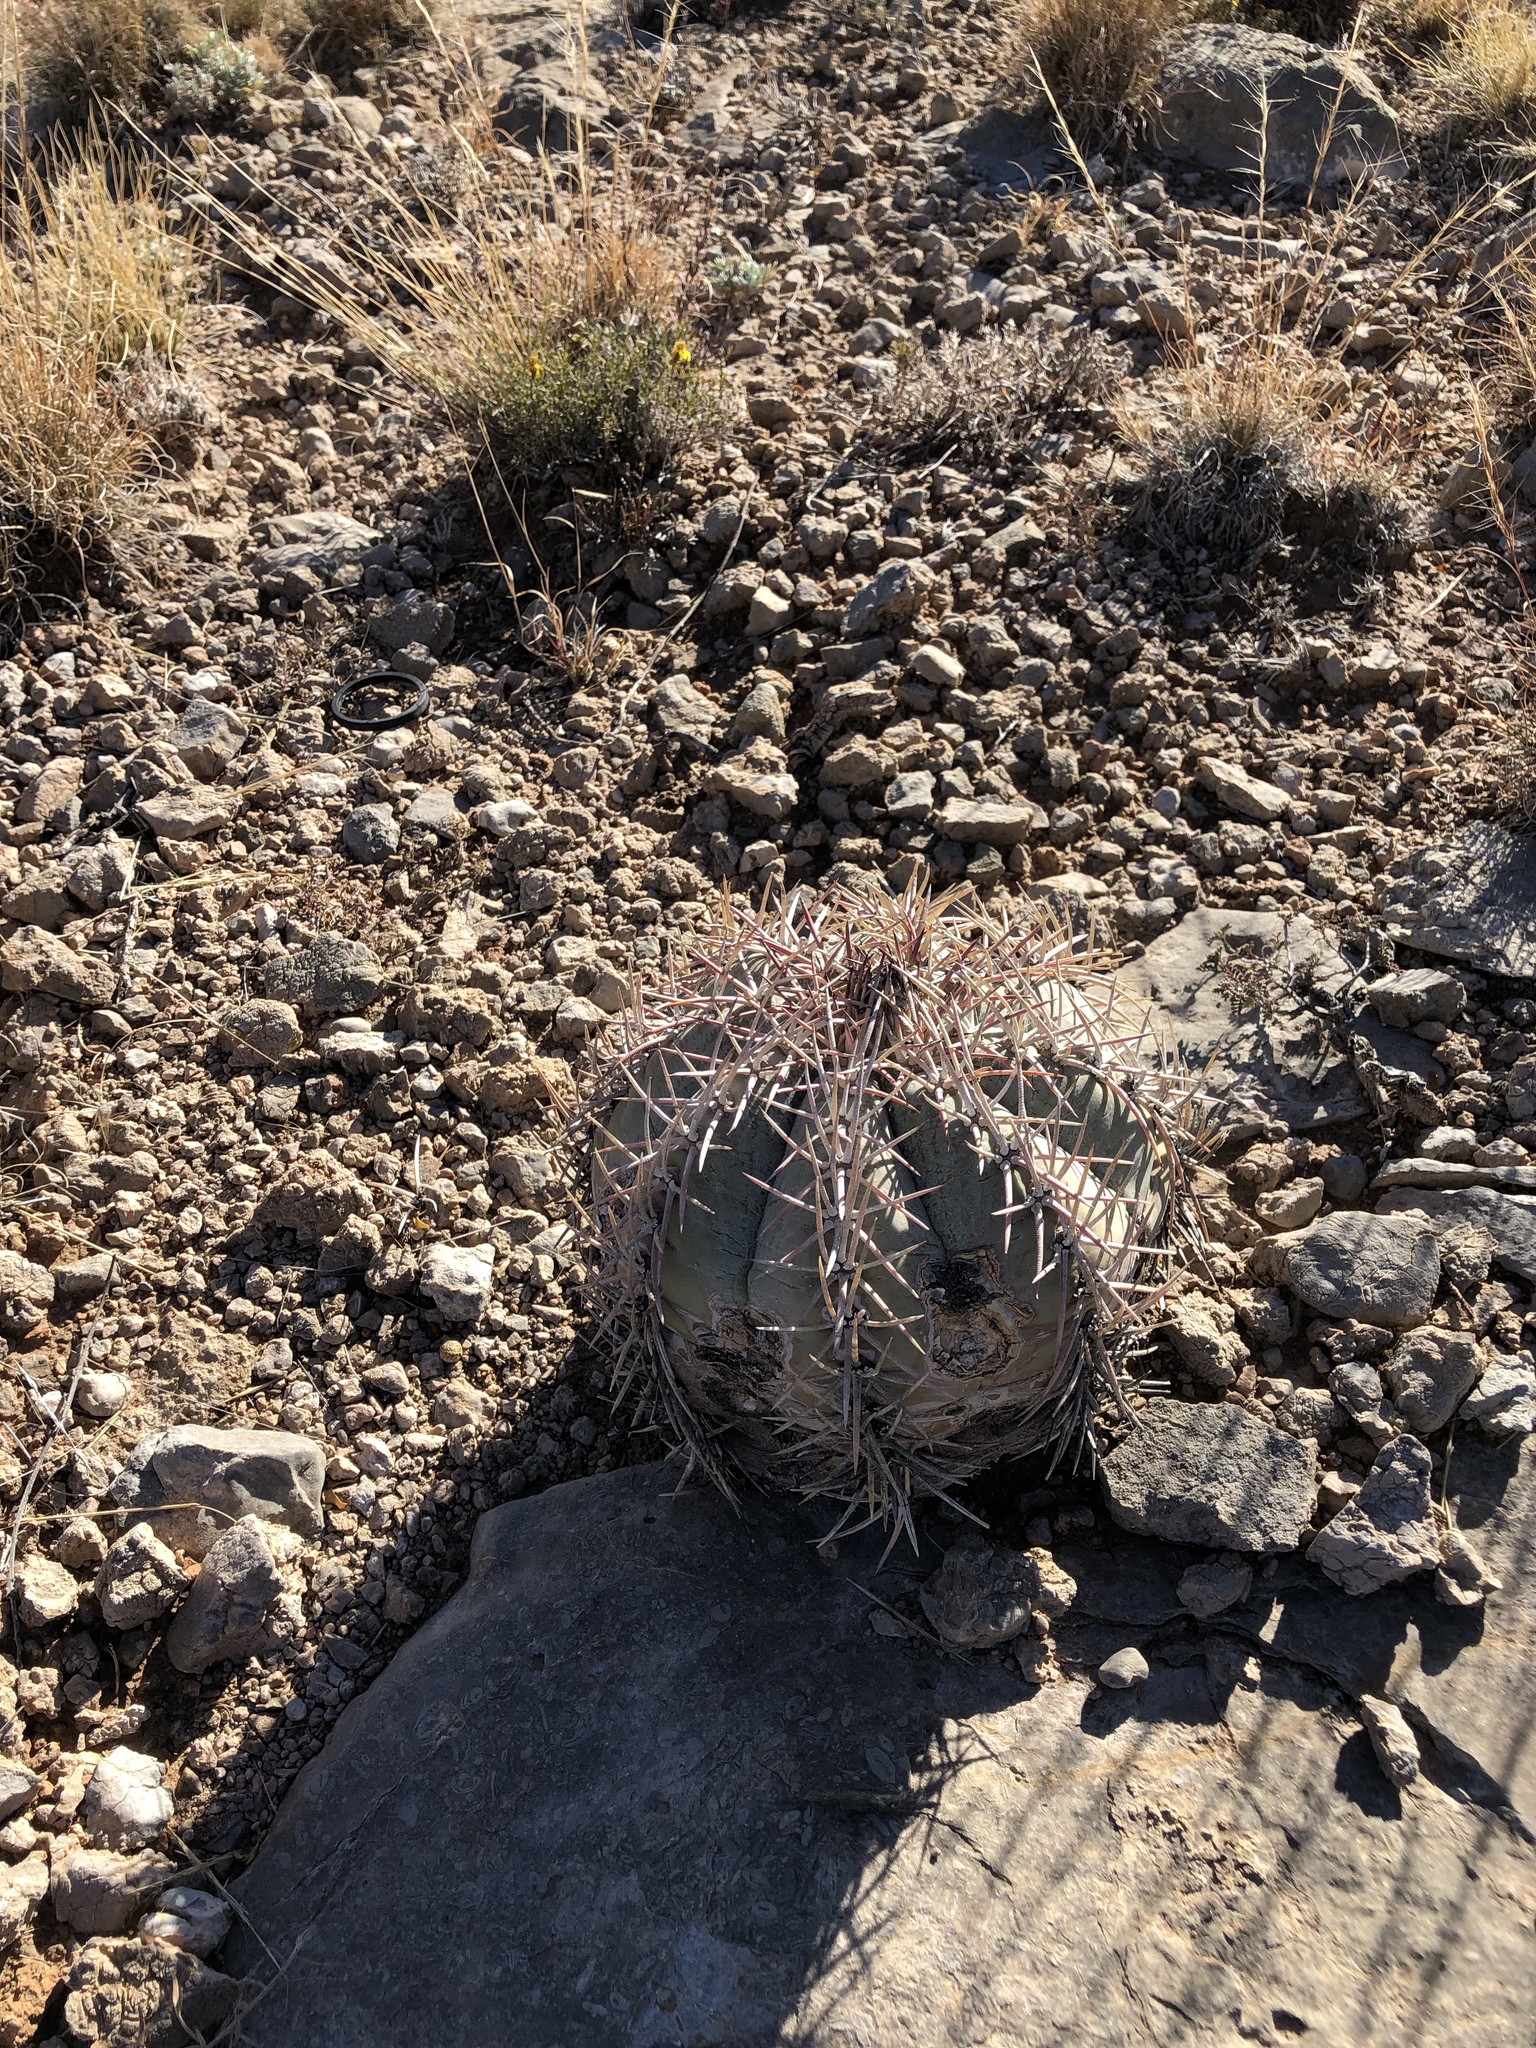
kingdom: Plantae
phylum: Tracheophyta
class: Magnoliopsida
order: Caryophyllales
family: Cactaceae
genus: Echinocactus
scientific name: Echinocactus horizonthalonius
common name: Devilshead
